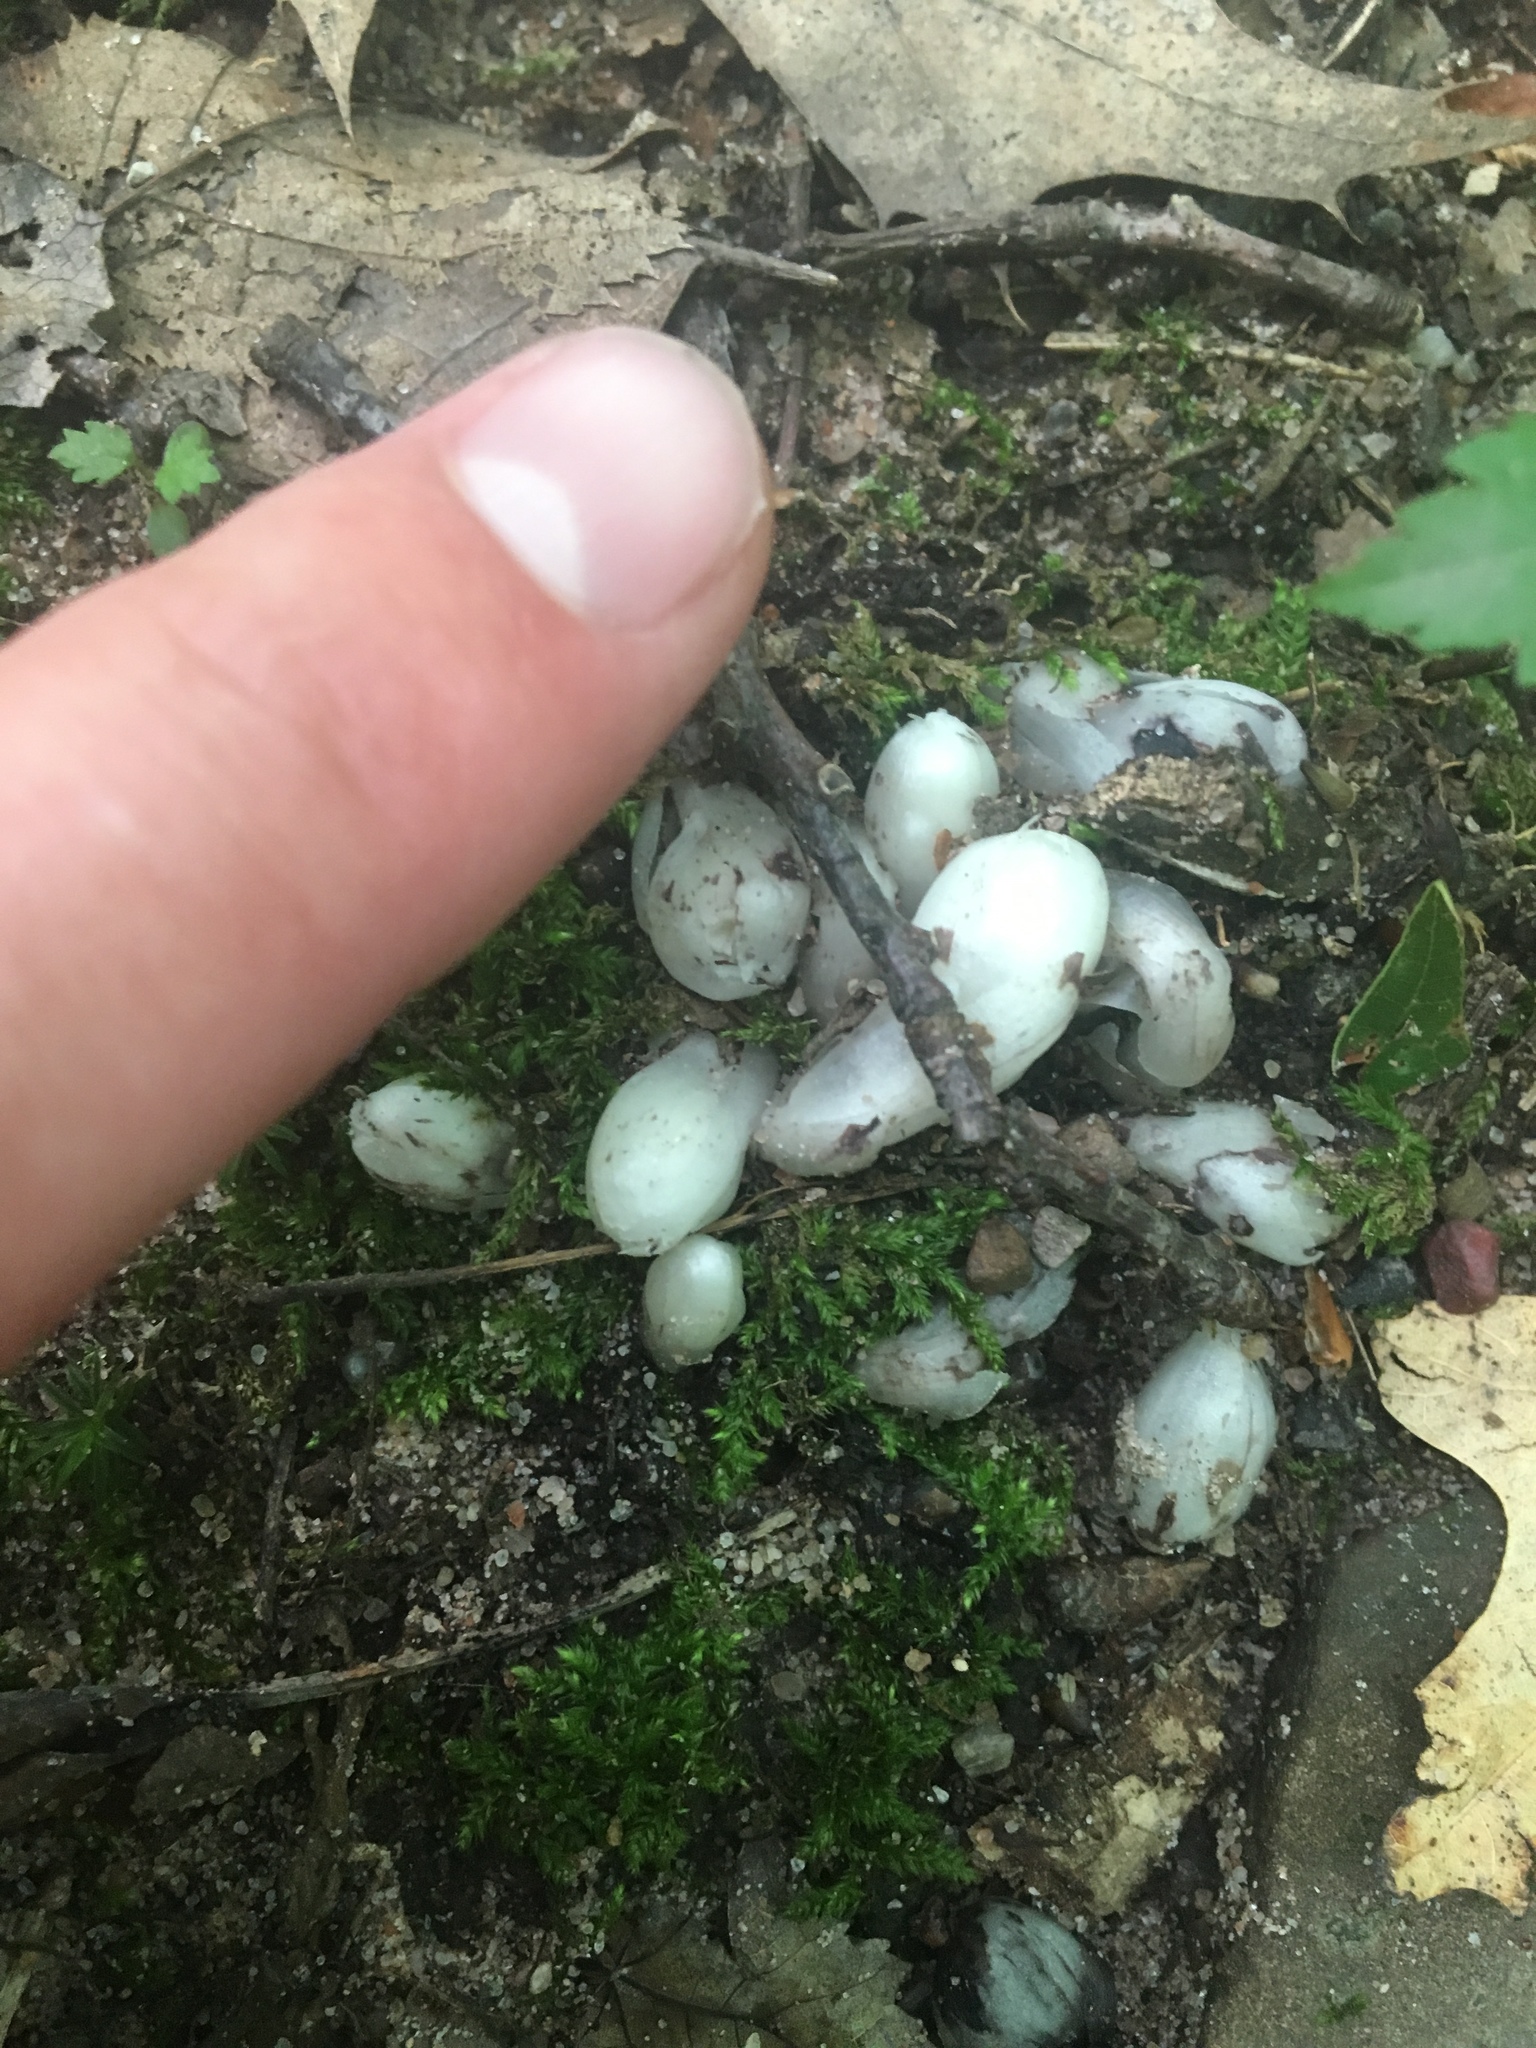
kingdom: Plantae
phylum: Tracheophyta
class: Magnoliopsida
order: Ericales
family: Ericaceae
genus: Monotropa
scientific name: Monotropa uniflora
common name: Convulsion root
